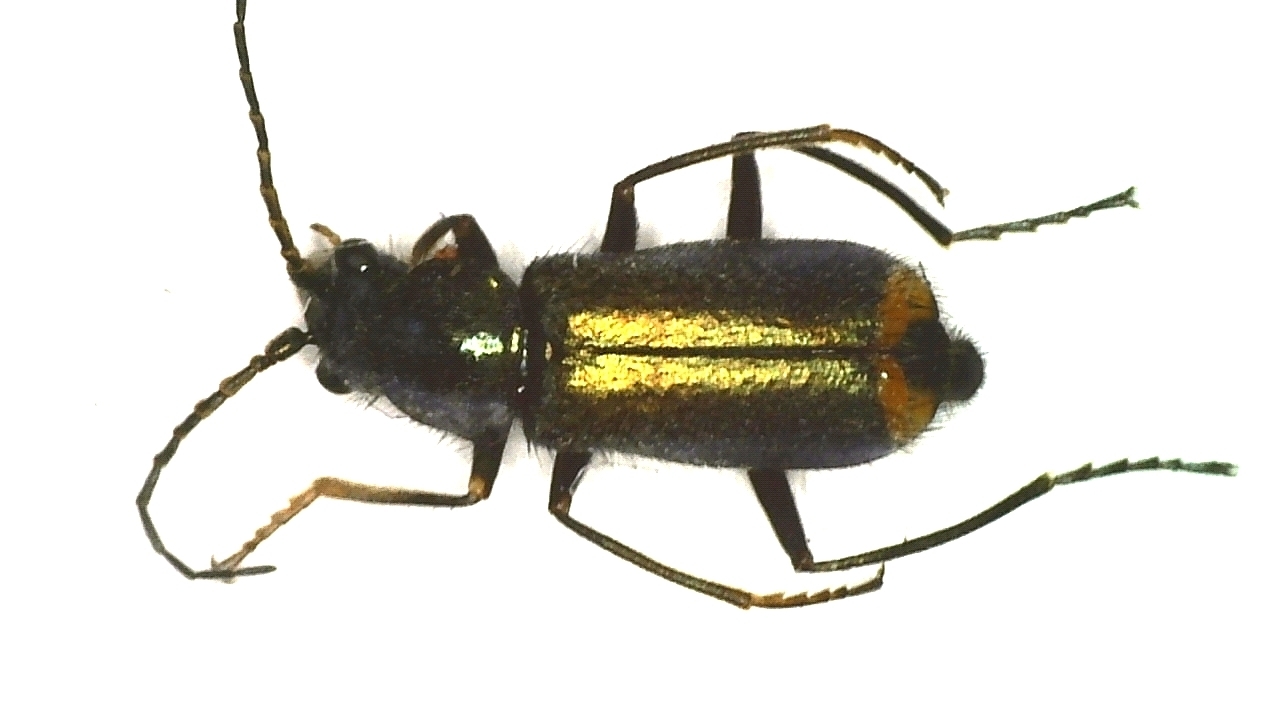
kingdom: Animalia
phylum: Arthropoda
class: Insecta
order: Coleoptera
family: Malachiidae
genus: Clanoptilus
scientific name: Clanoptilus geniculatus
